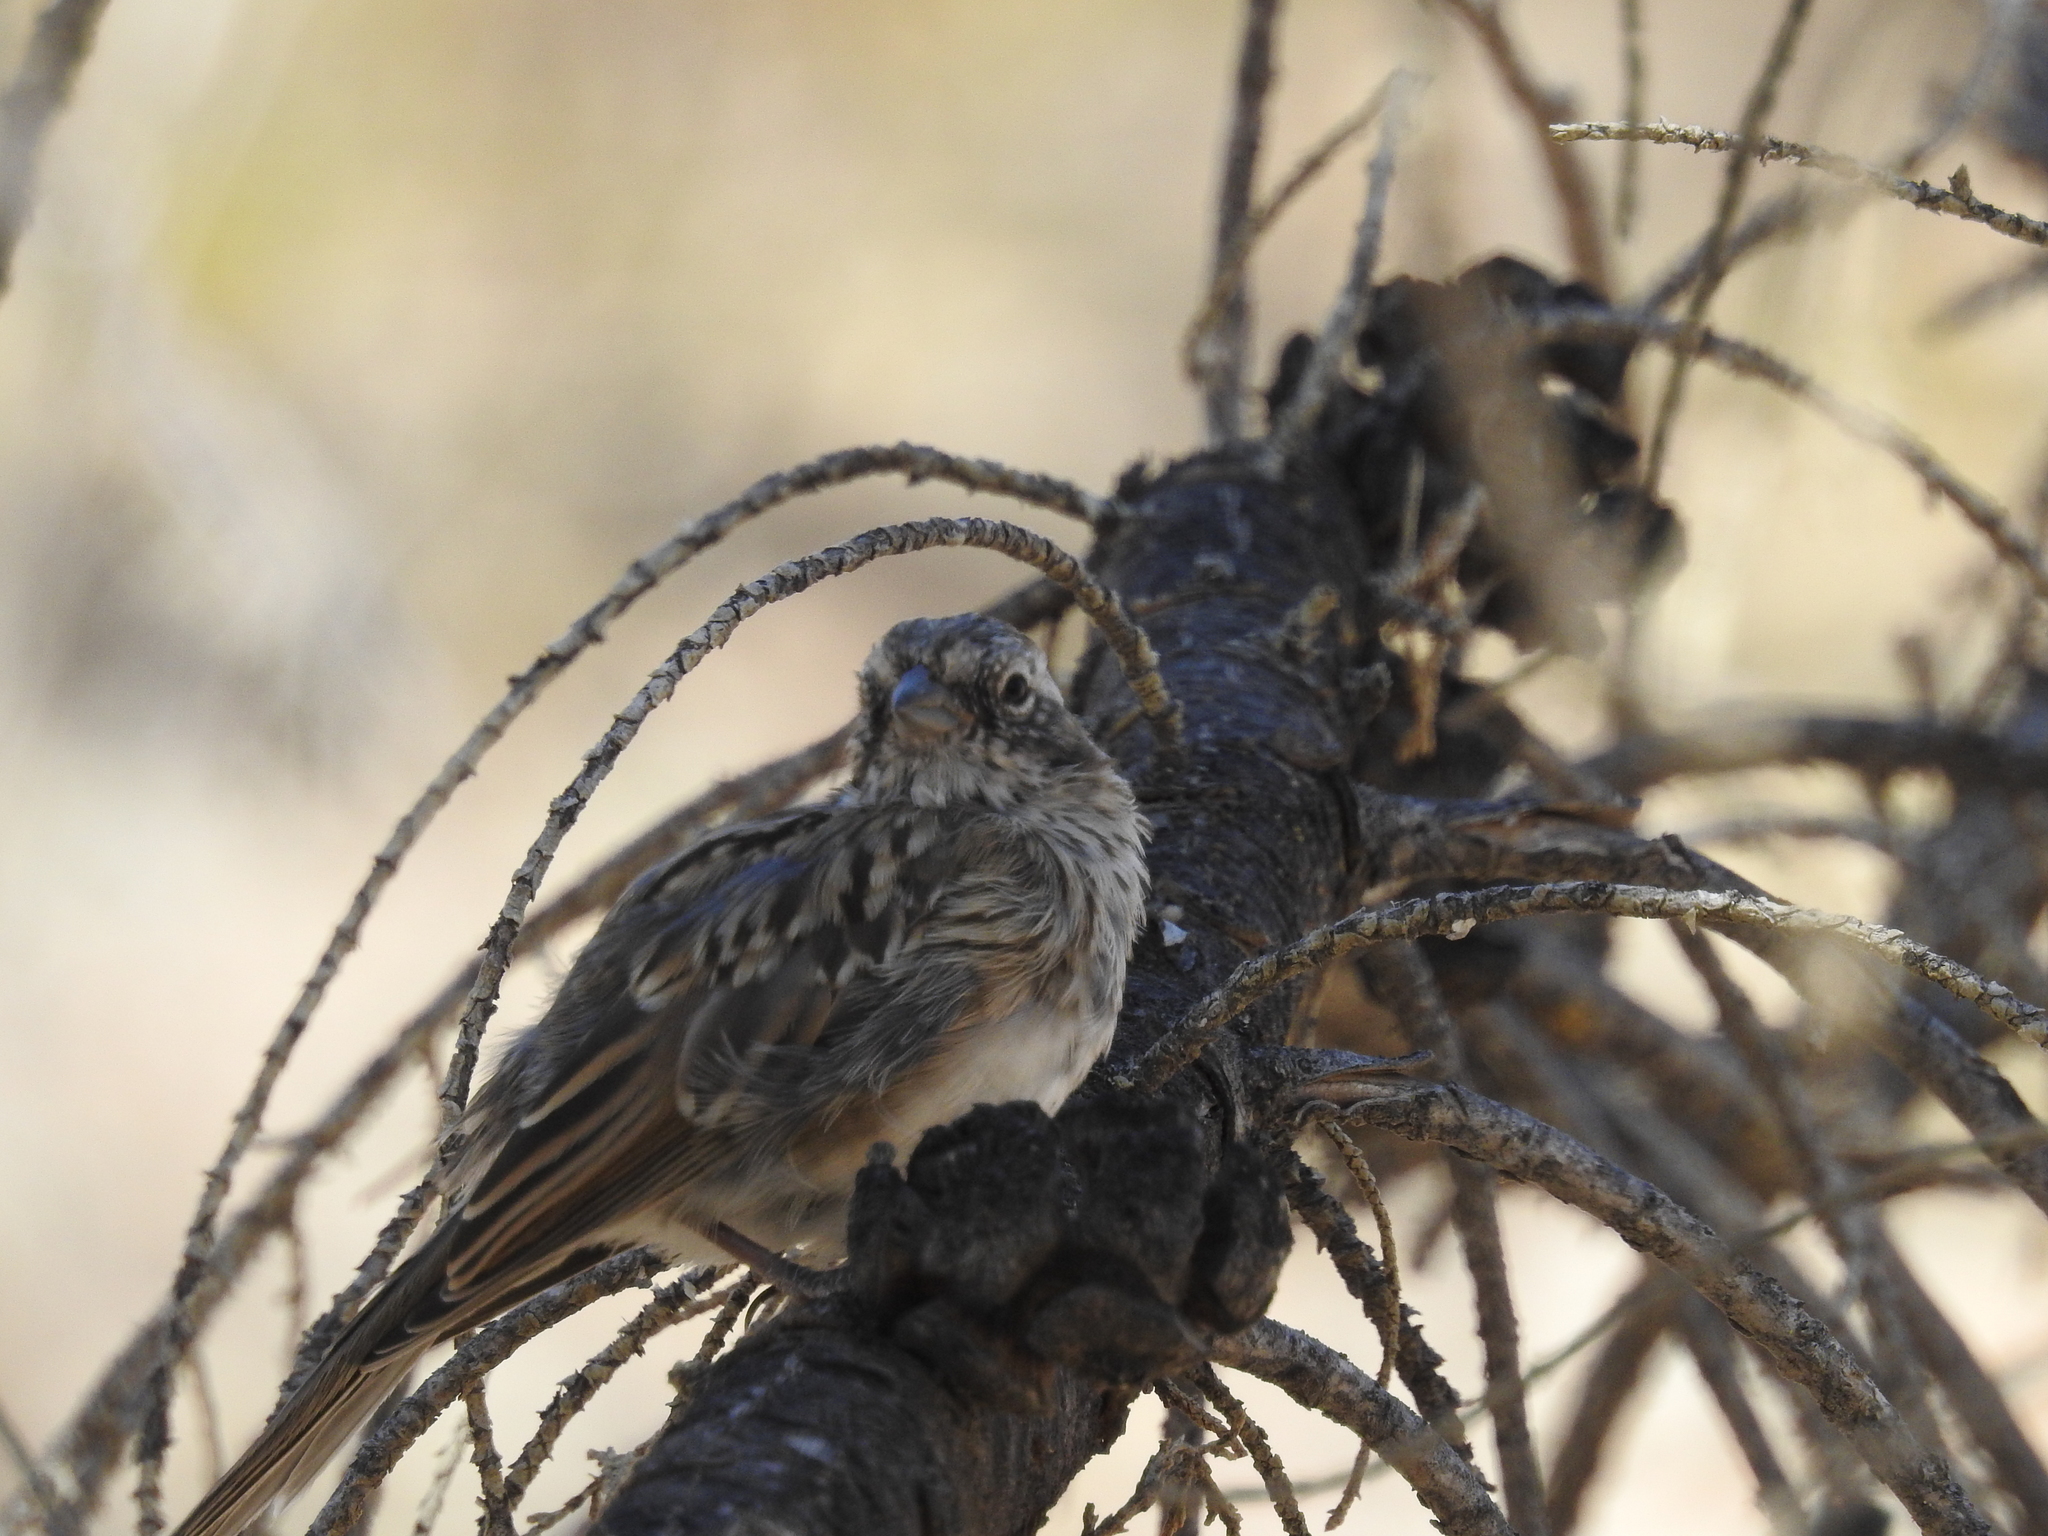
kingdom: Animalia
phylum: Chordata
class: Aves
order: Passeriformes
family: Passerellidae
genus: Zonotrichia
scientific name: Zonotrichia capensis
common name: Rufous-collared sparrow
